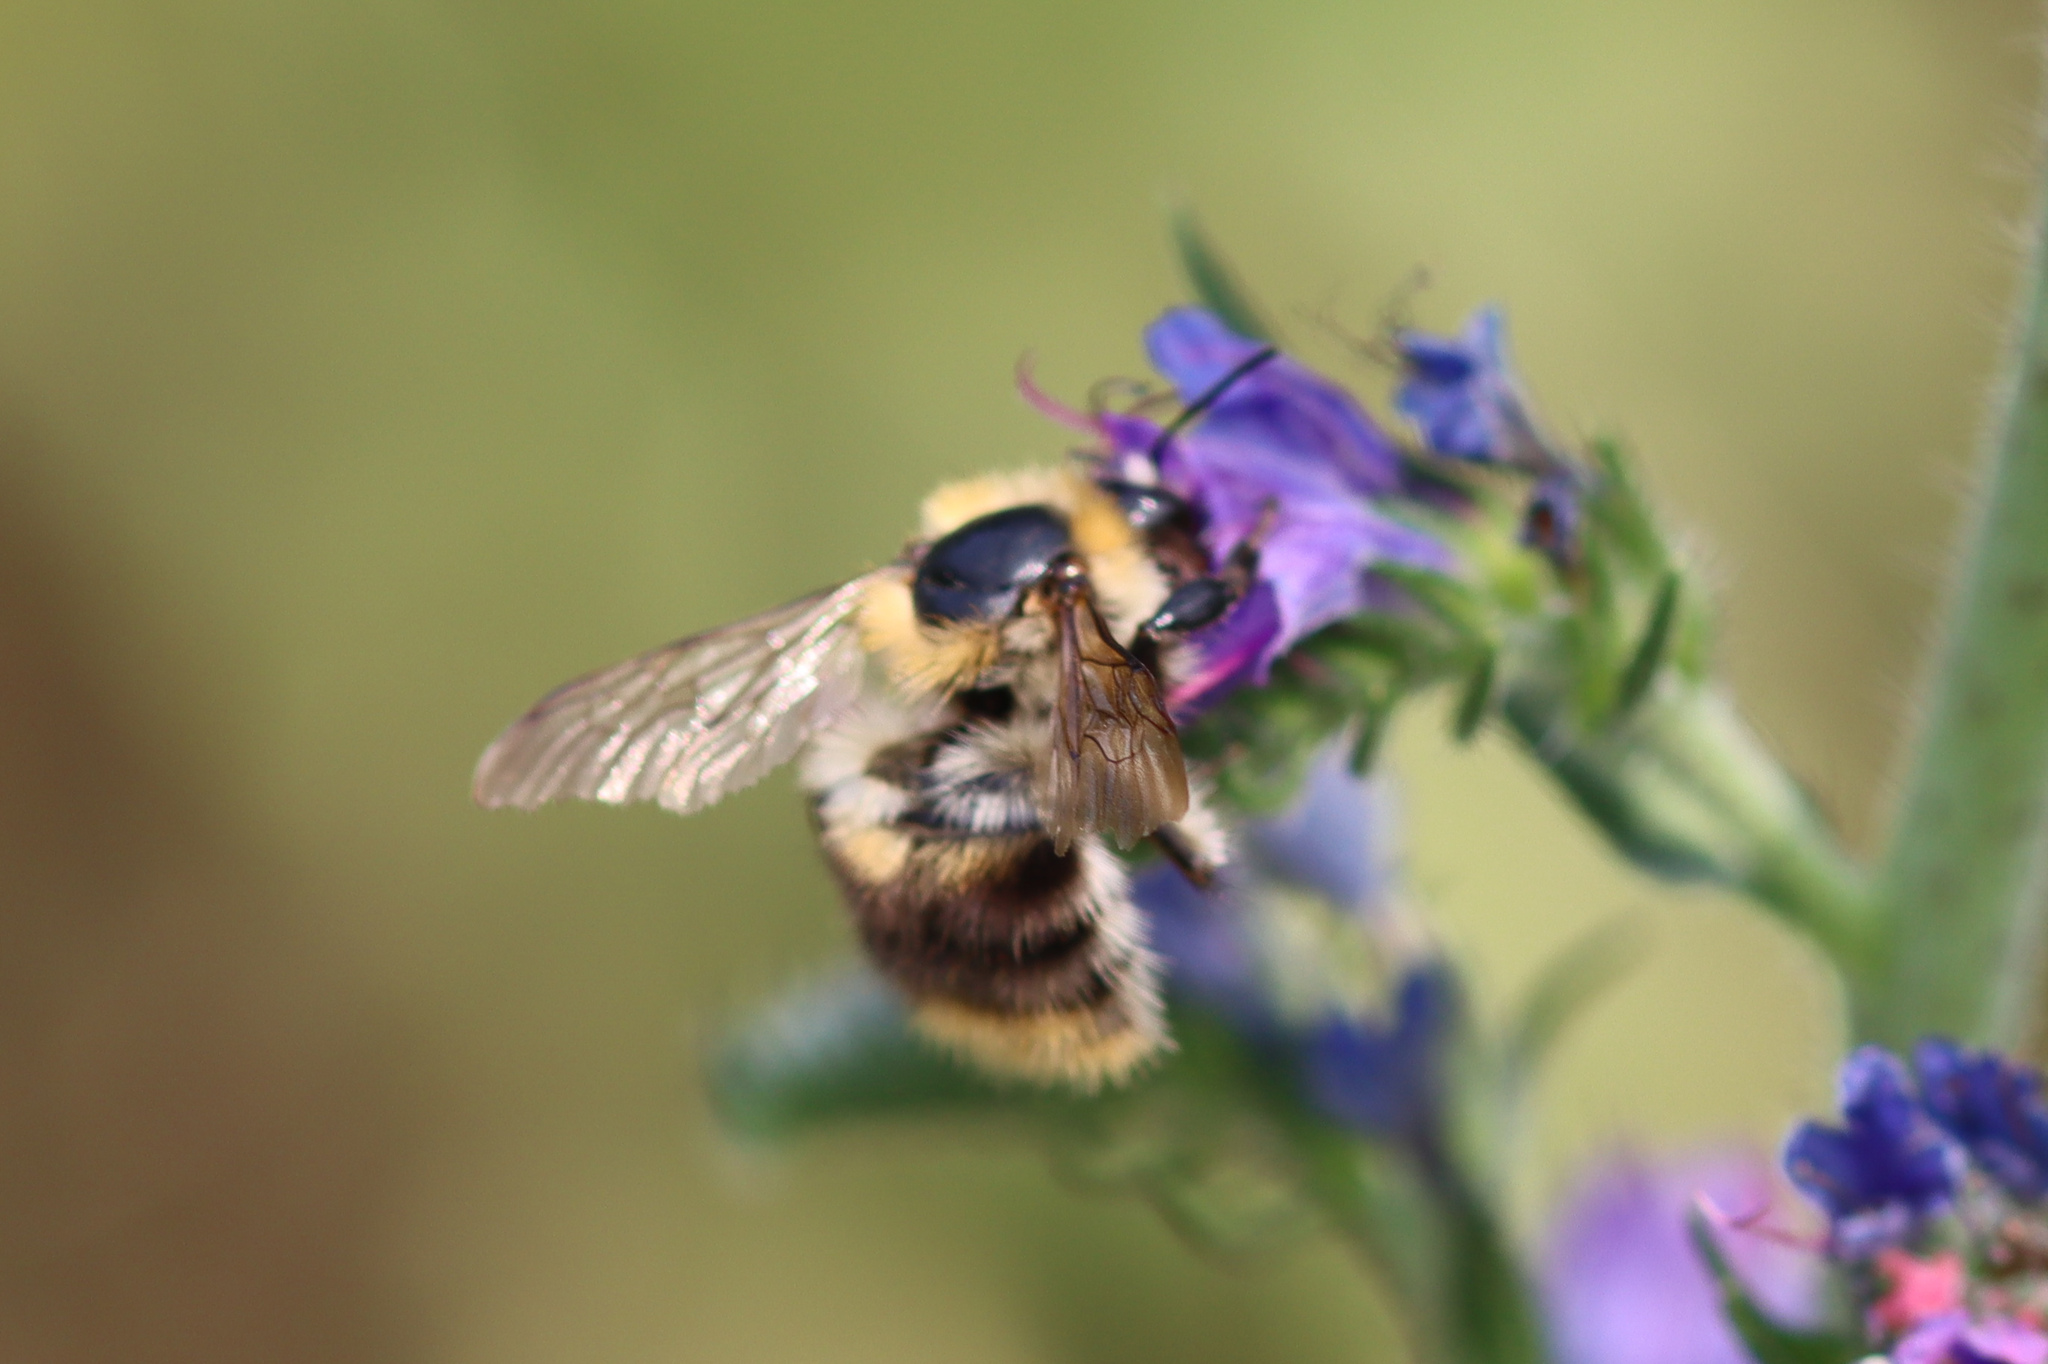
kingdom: Animalia
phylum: Arthropoda
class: Insecta
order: Hymenoptera
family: Apidae
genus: Bombus
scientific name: Bombus pascuorum
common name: Common carder bee
